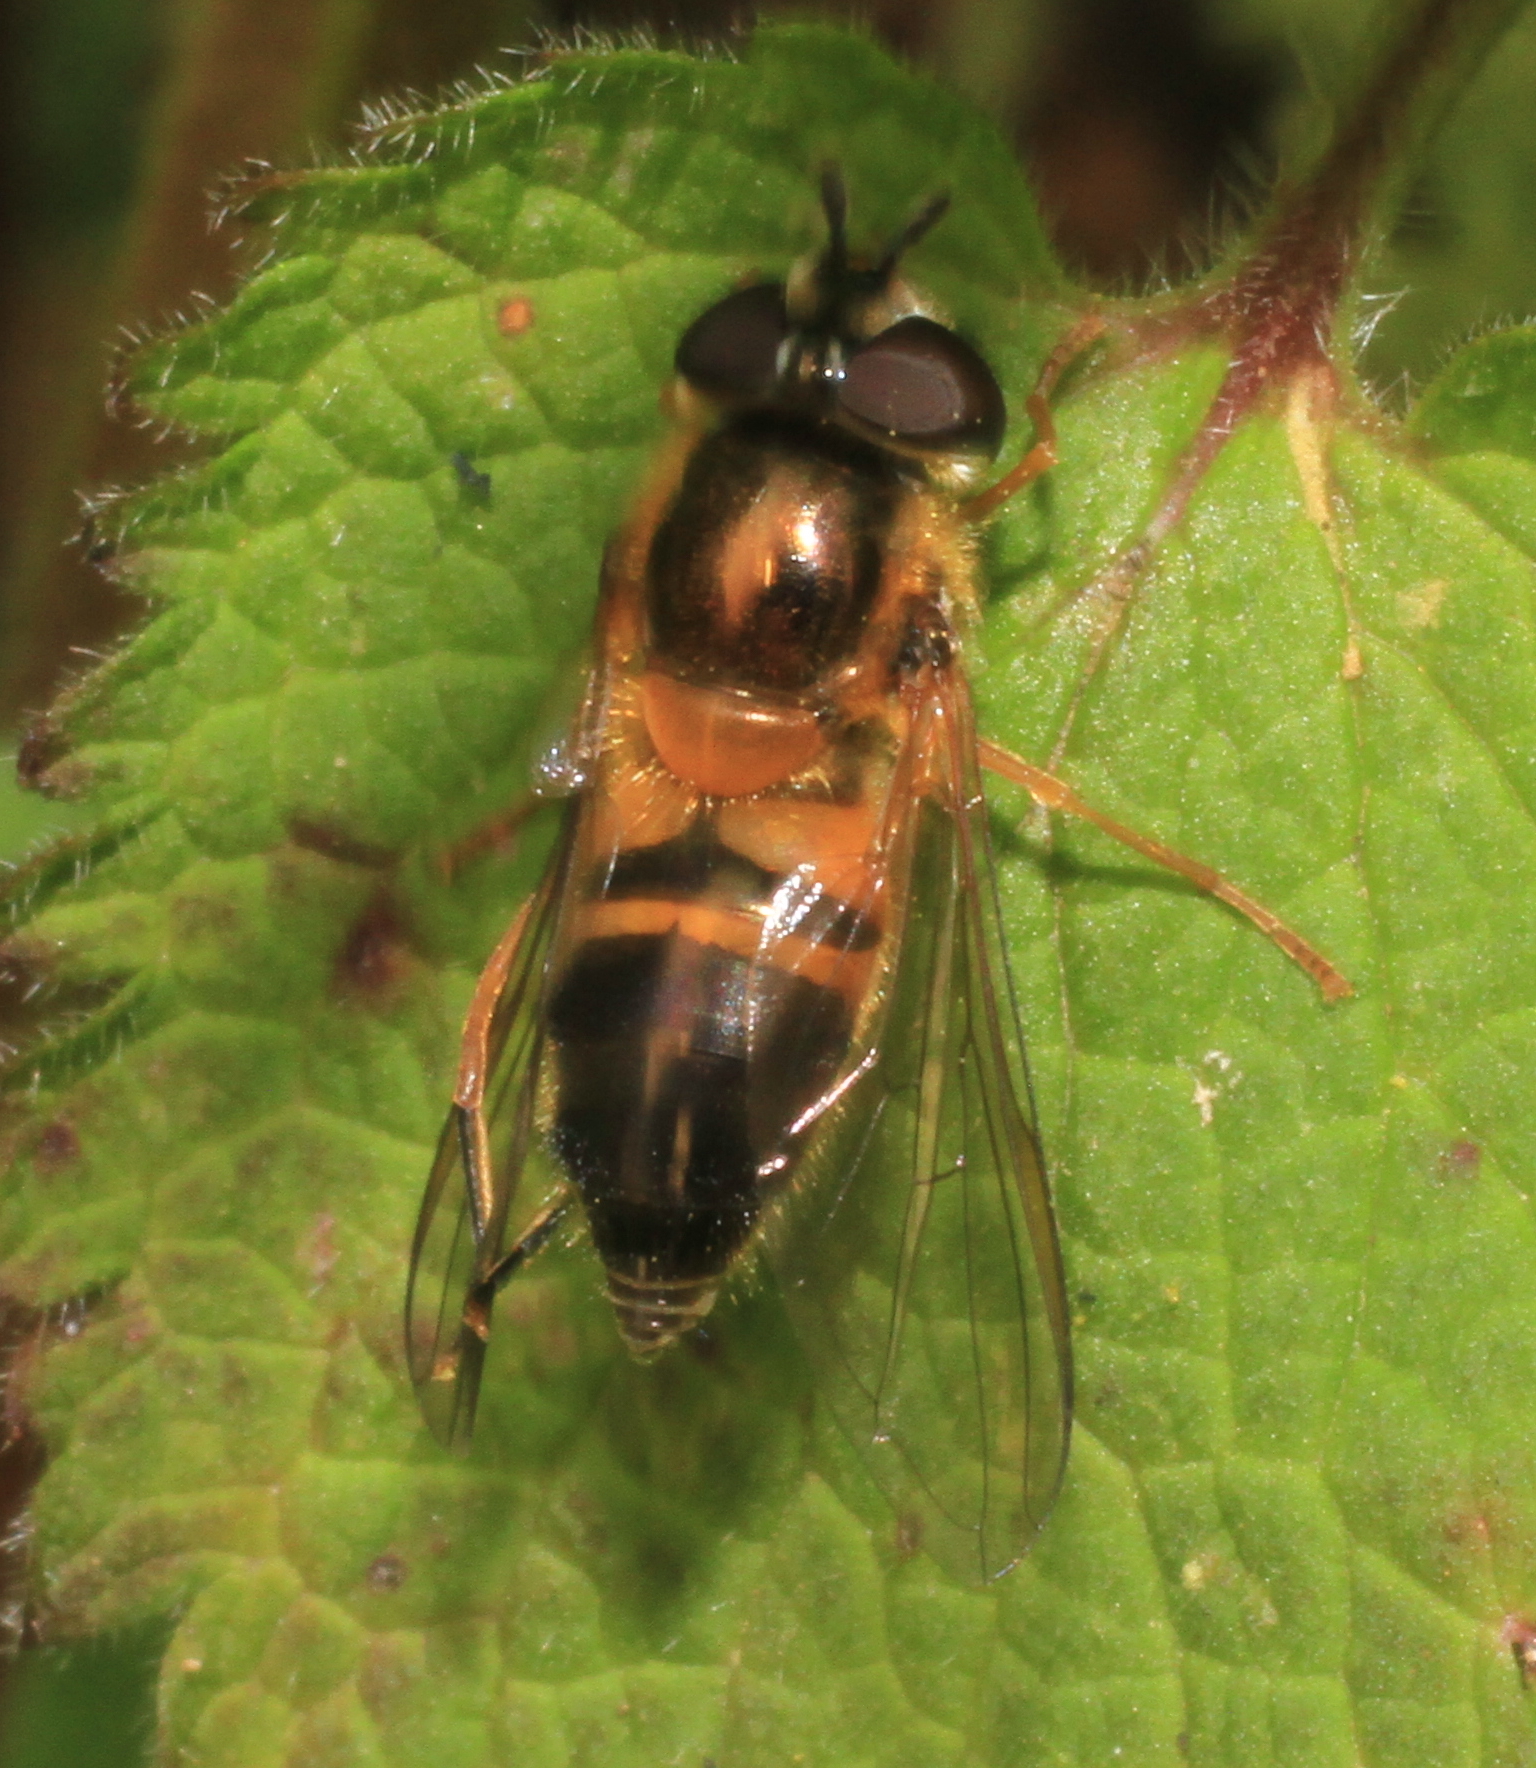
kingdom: Animalia
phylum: Arthropoda
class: Insecta
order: Diptera
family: Syrphidae
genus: Epistrophe
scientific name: Epistrophe eligans
